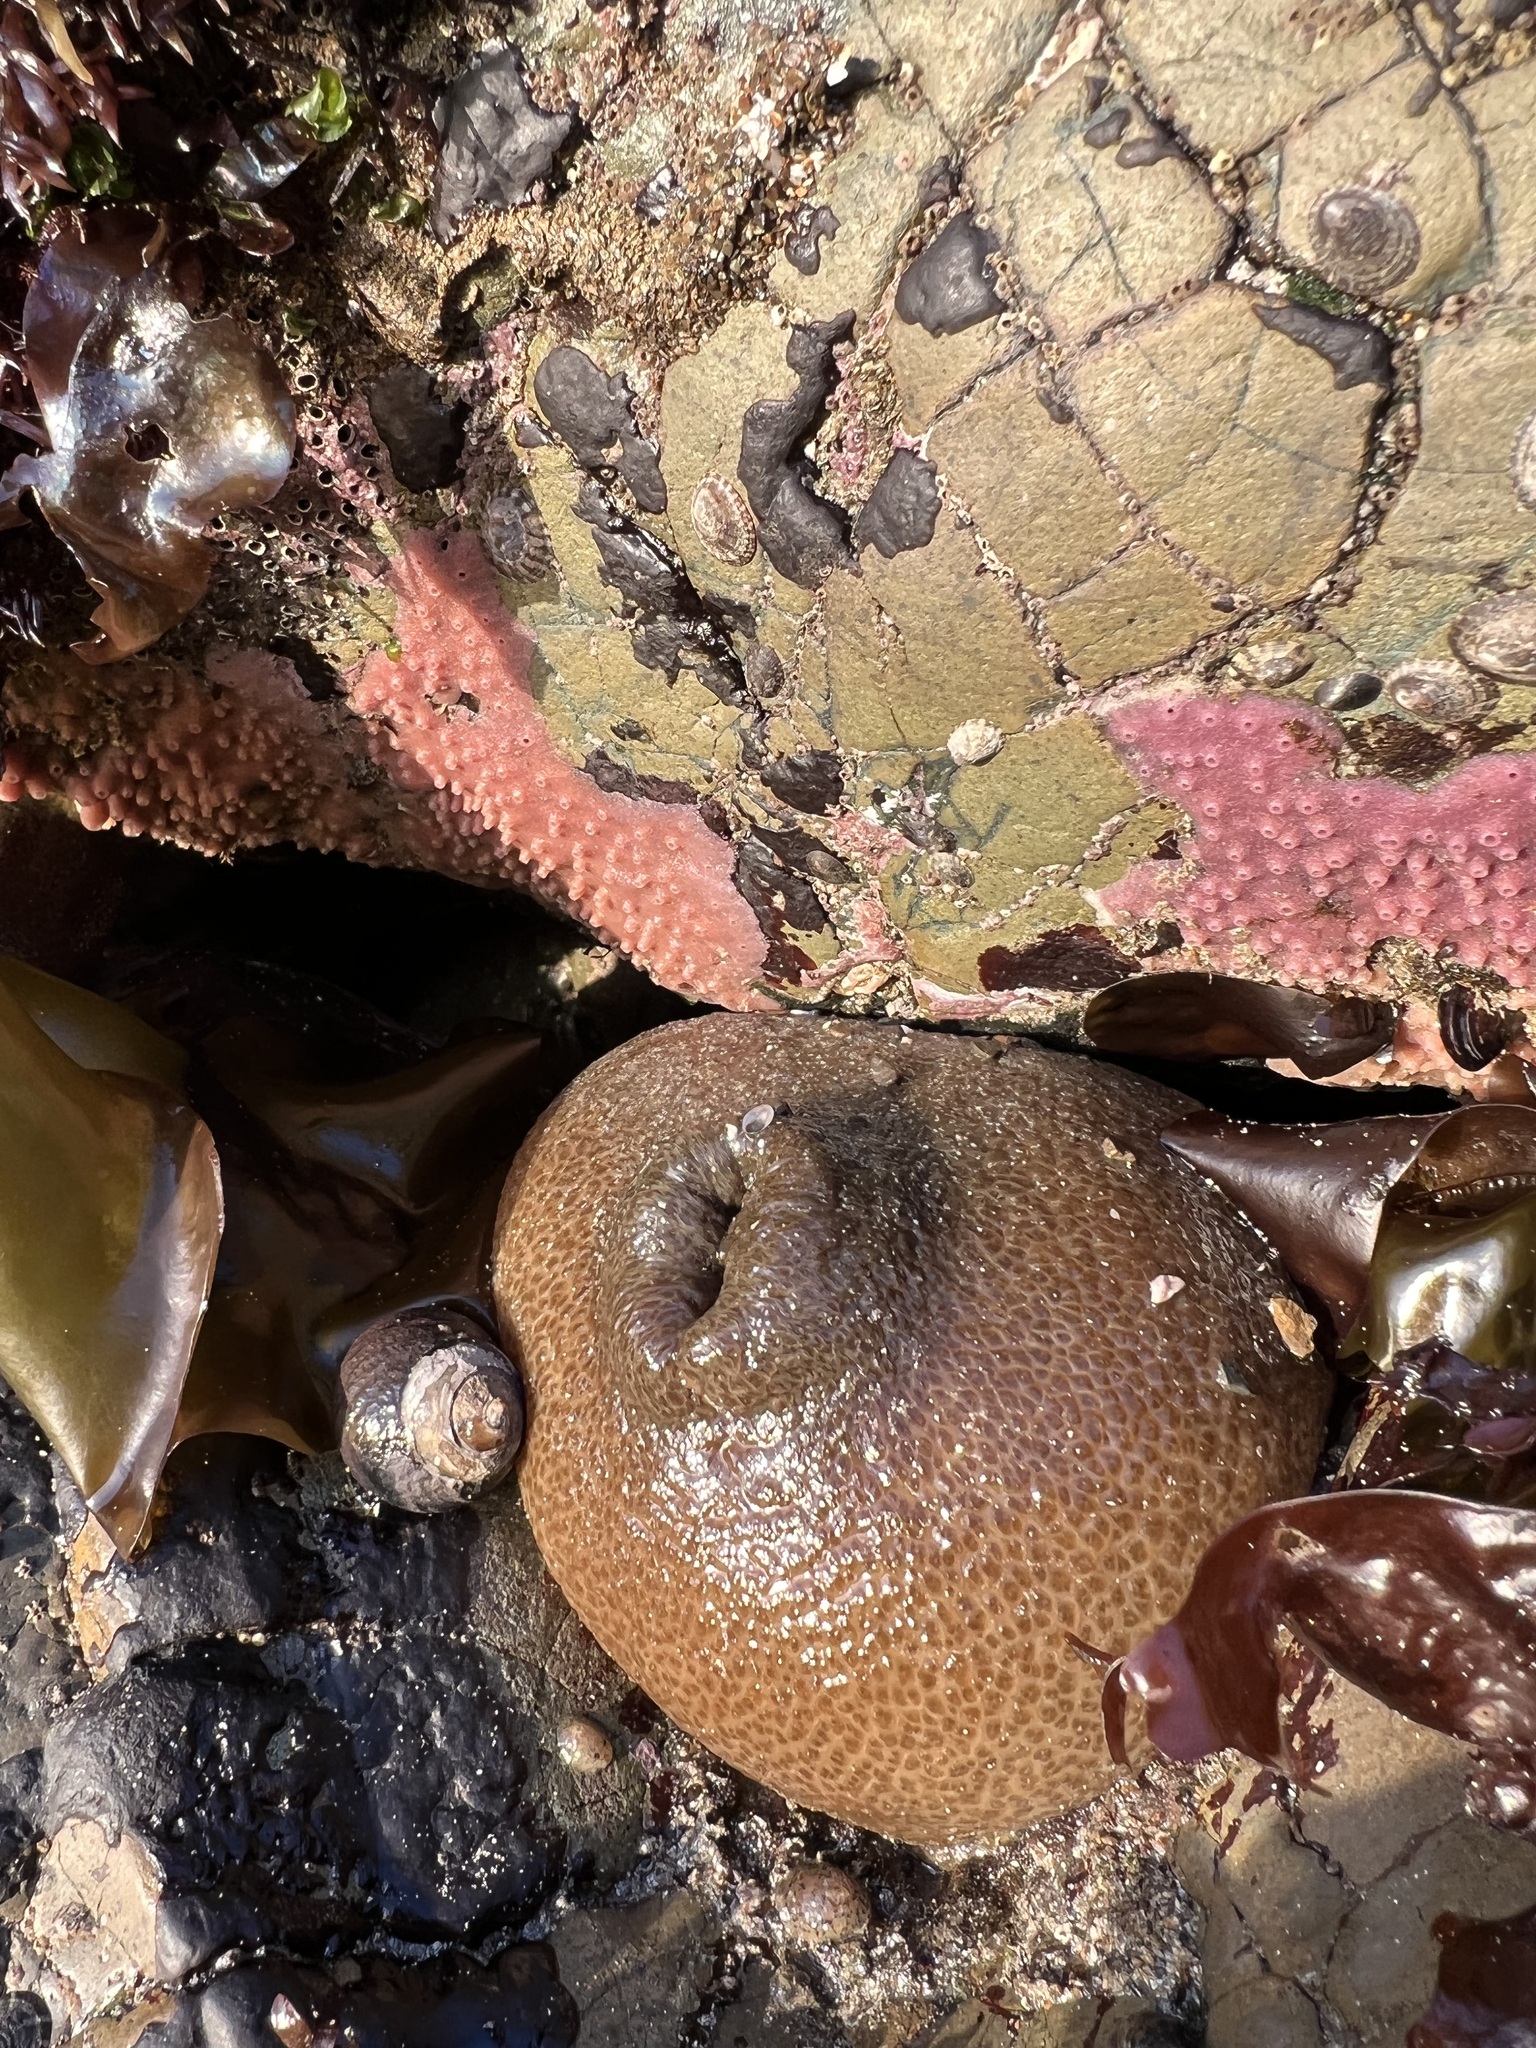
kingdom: Animalia
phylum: Cnidaria
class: Anthozoa
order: Actiniaria
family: Actiniidae
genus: Anthopleura
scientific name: Anthopleura xanthogrammica
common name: Giant green anemone
